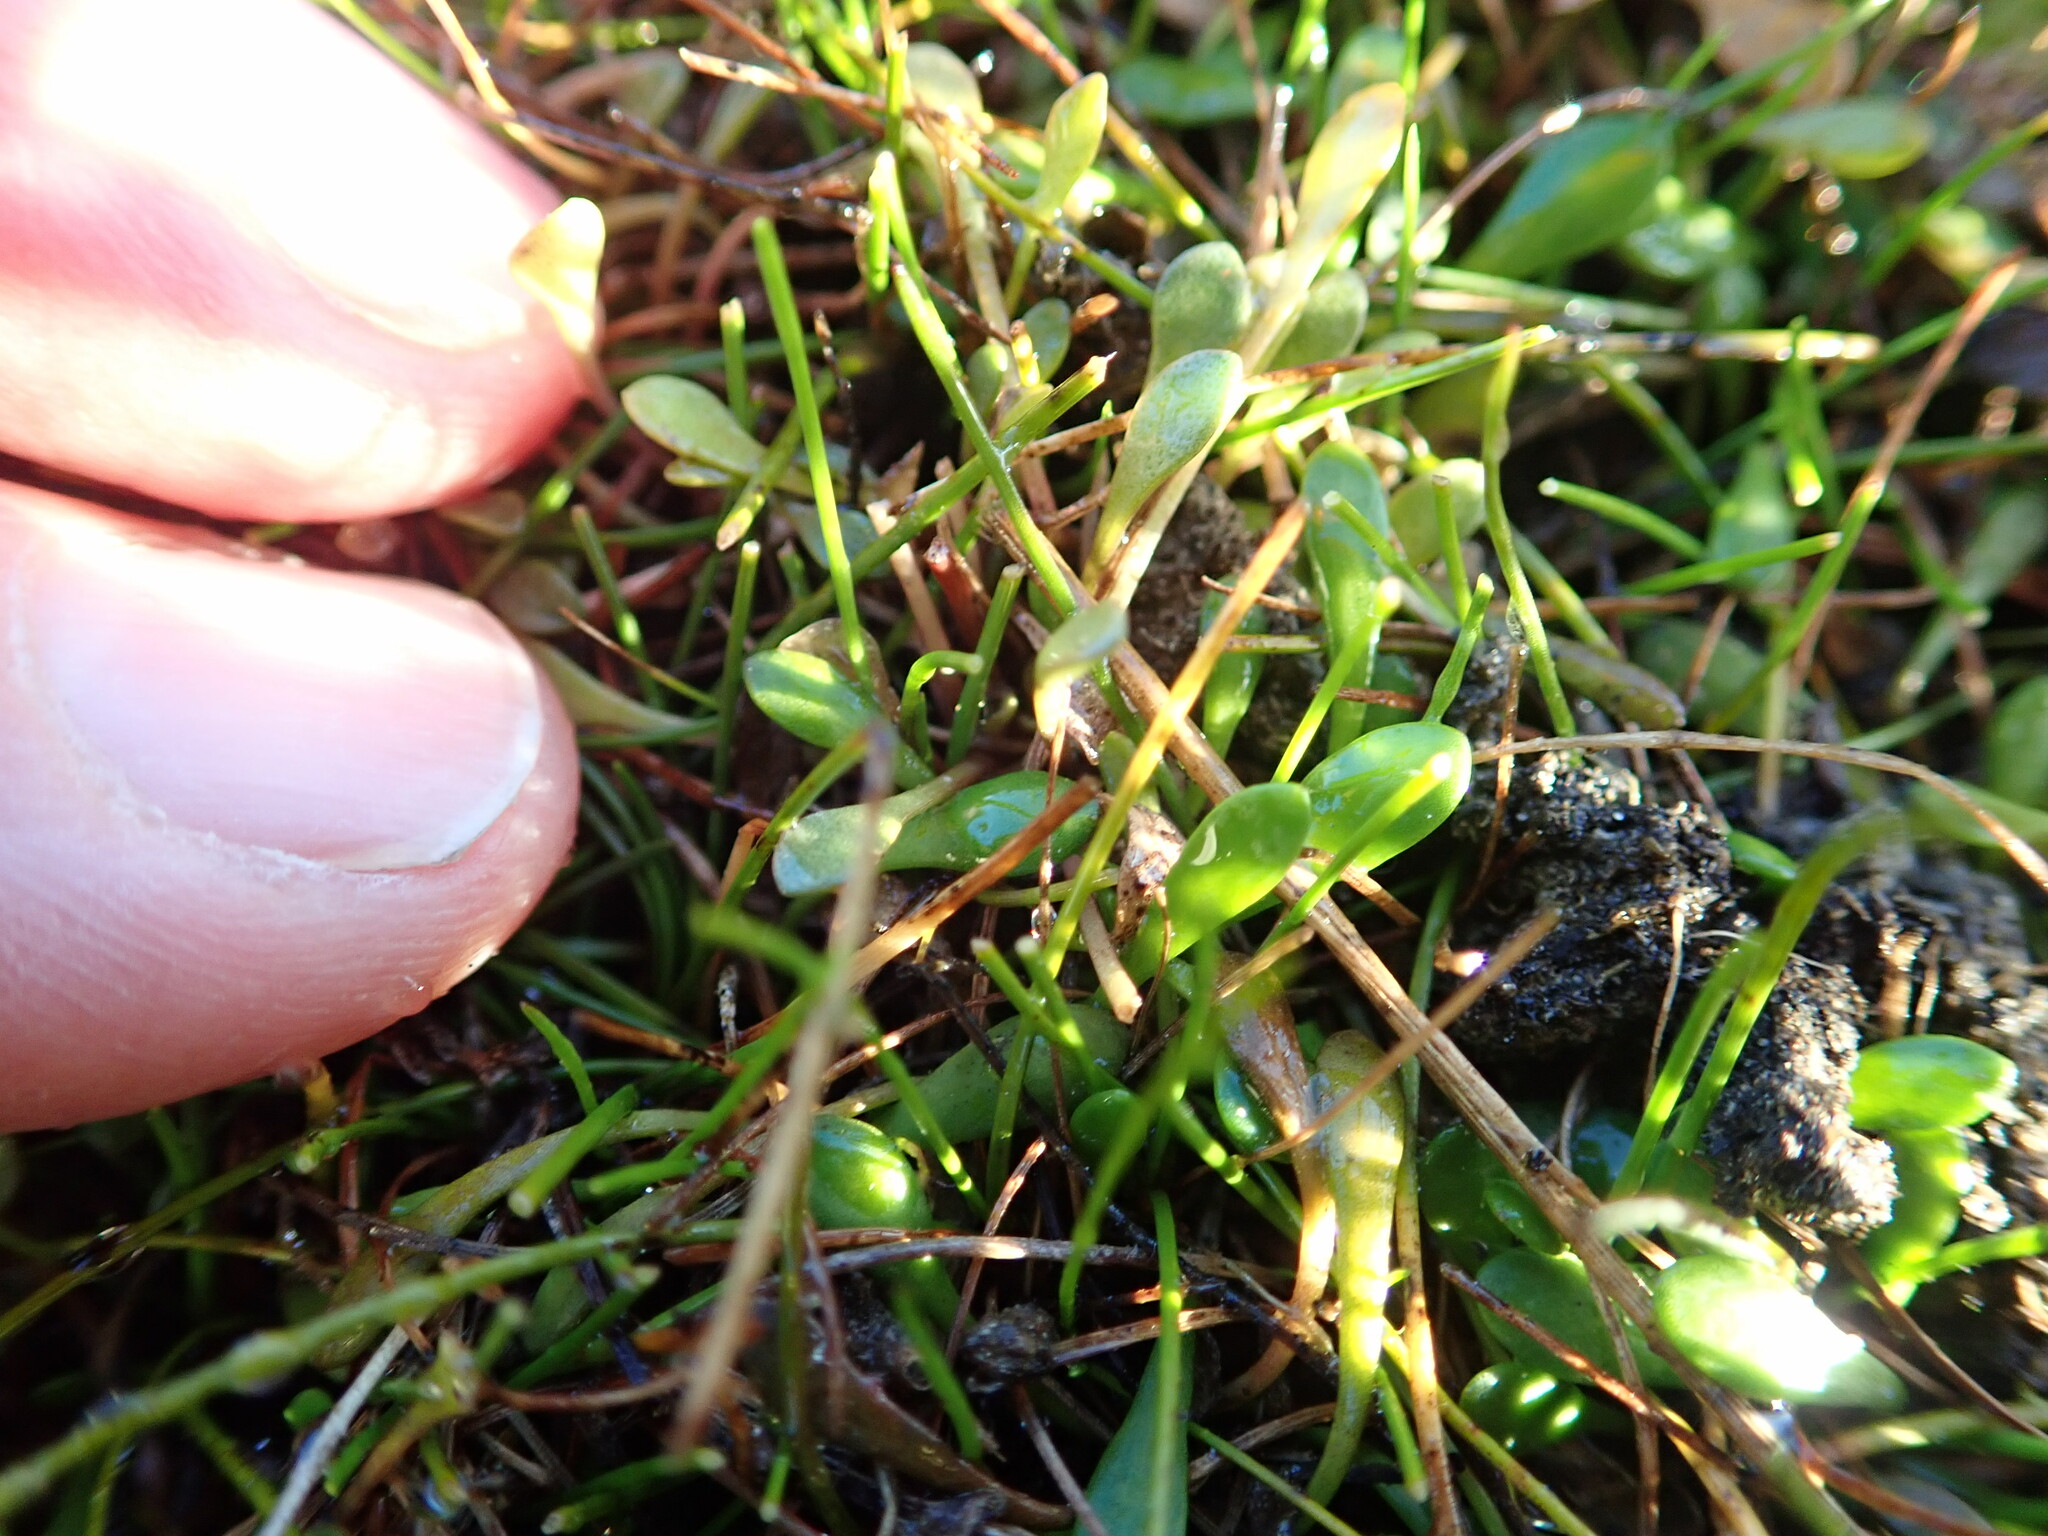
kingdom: Plantae
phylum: Tracheophyta
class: Magnoliopsida
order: Asterales
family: Goodeniaceae
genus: Goodenia
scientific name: Goodenia radicans
